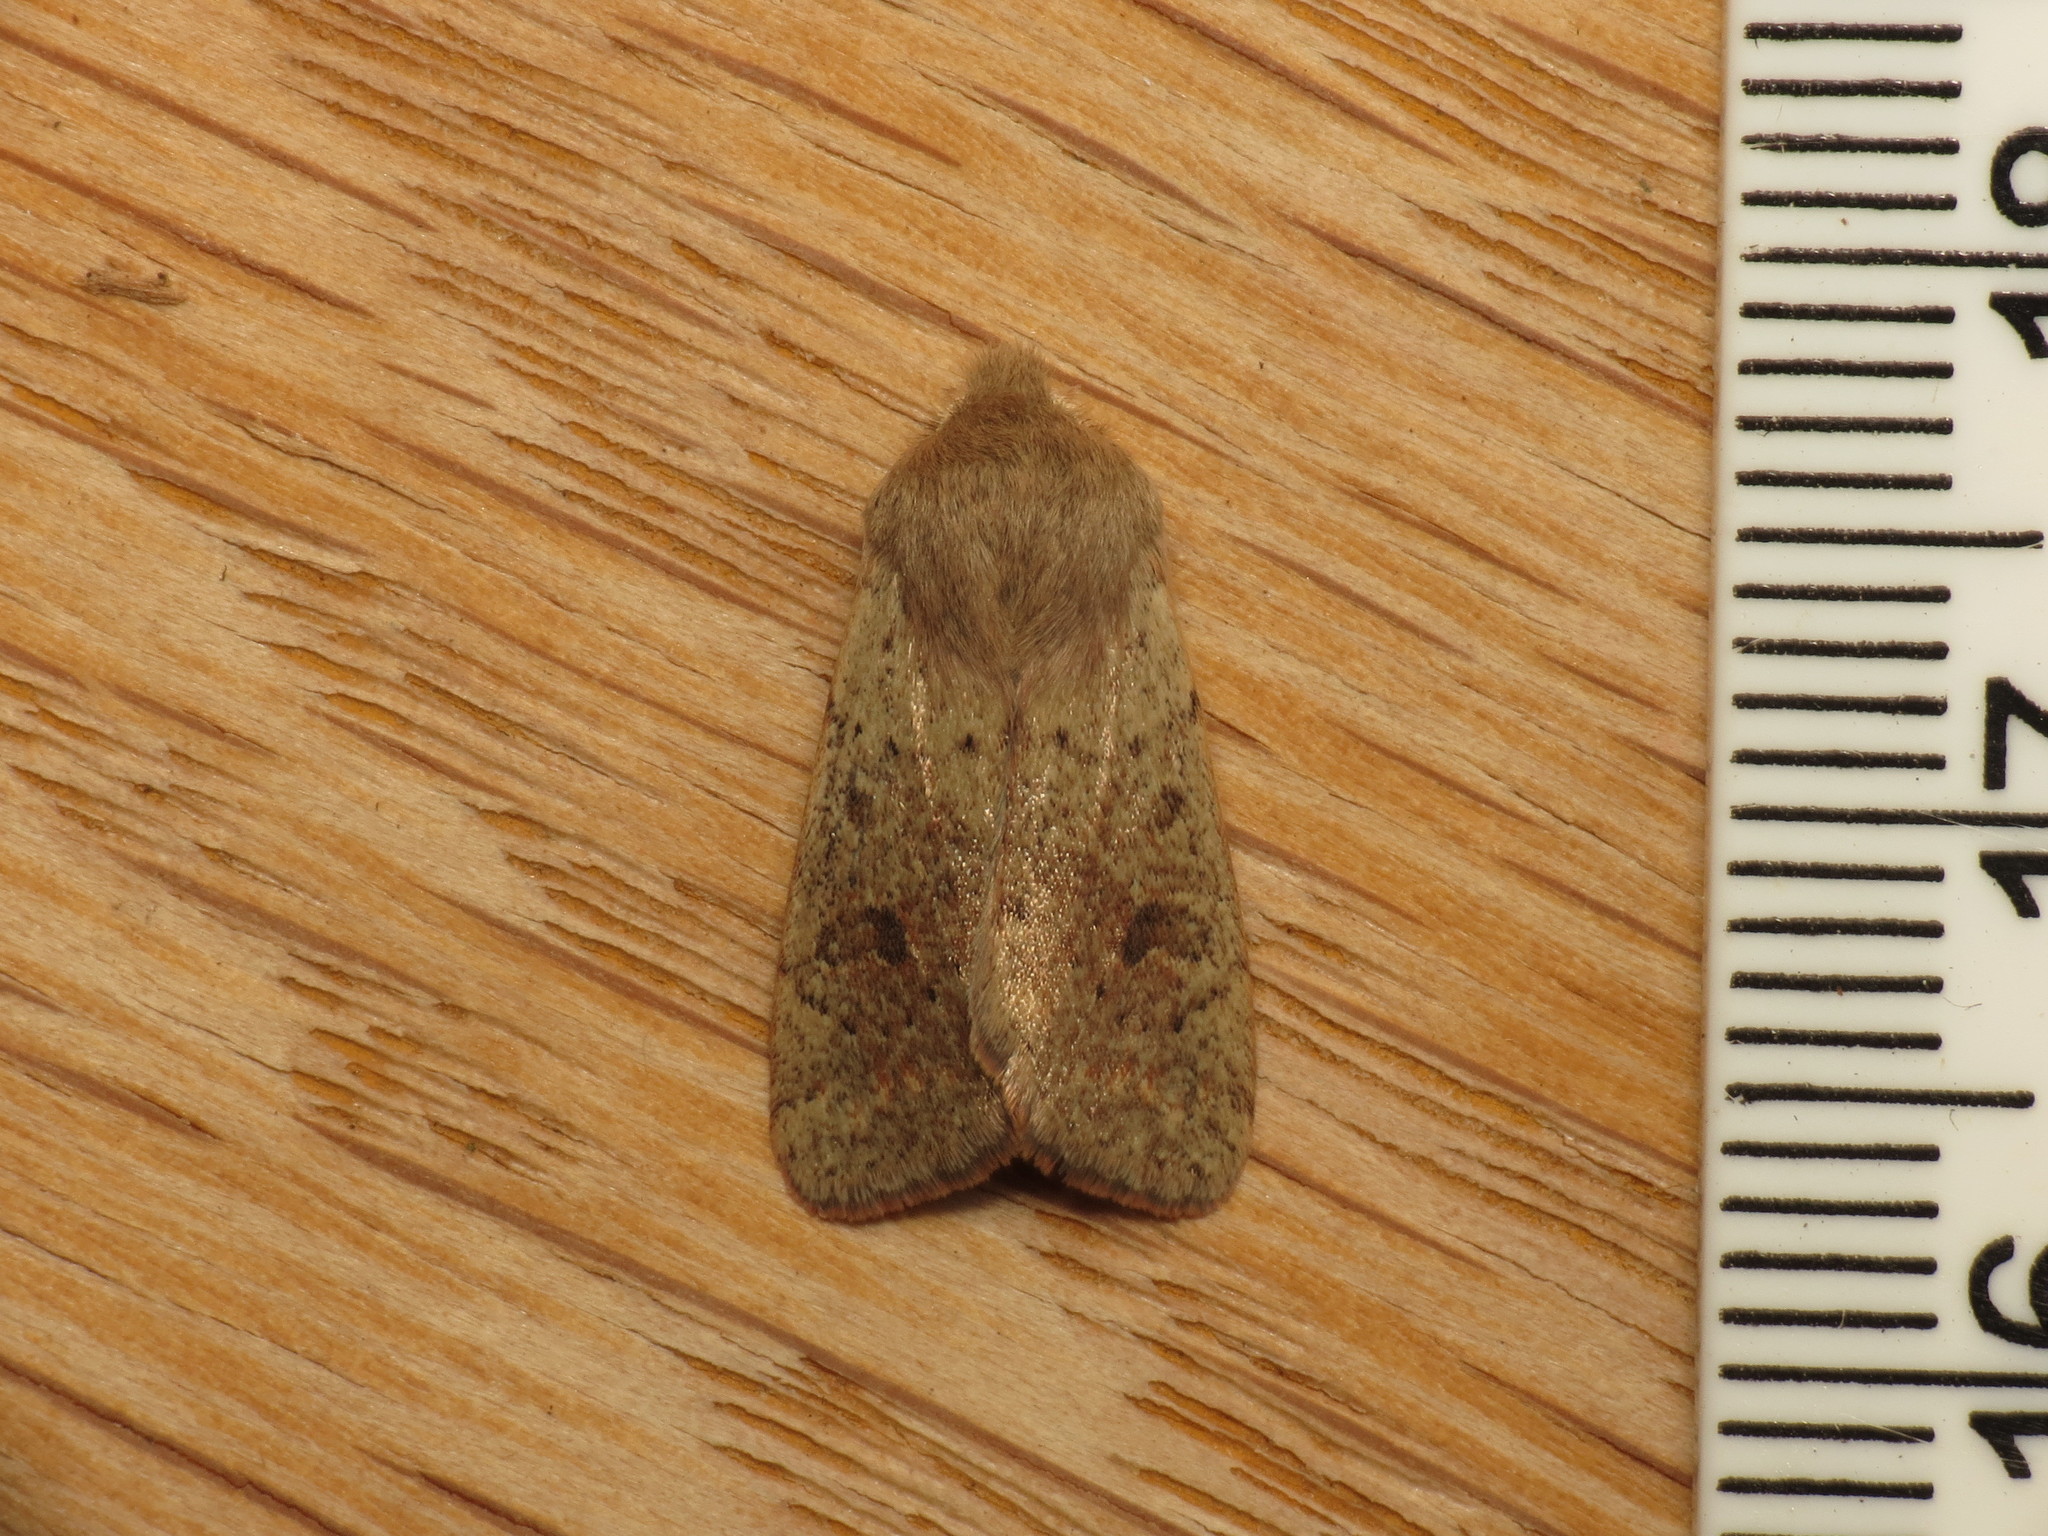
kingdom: Animalia
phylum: Arthropoda
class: Insecta
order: Lepidoptera
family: Noctuidae
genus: Orthosia
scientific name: Orthosia cruda
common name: Small quaker
